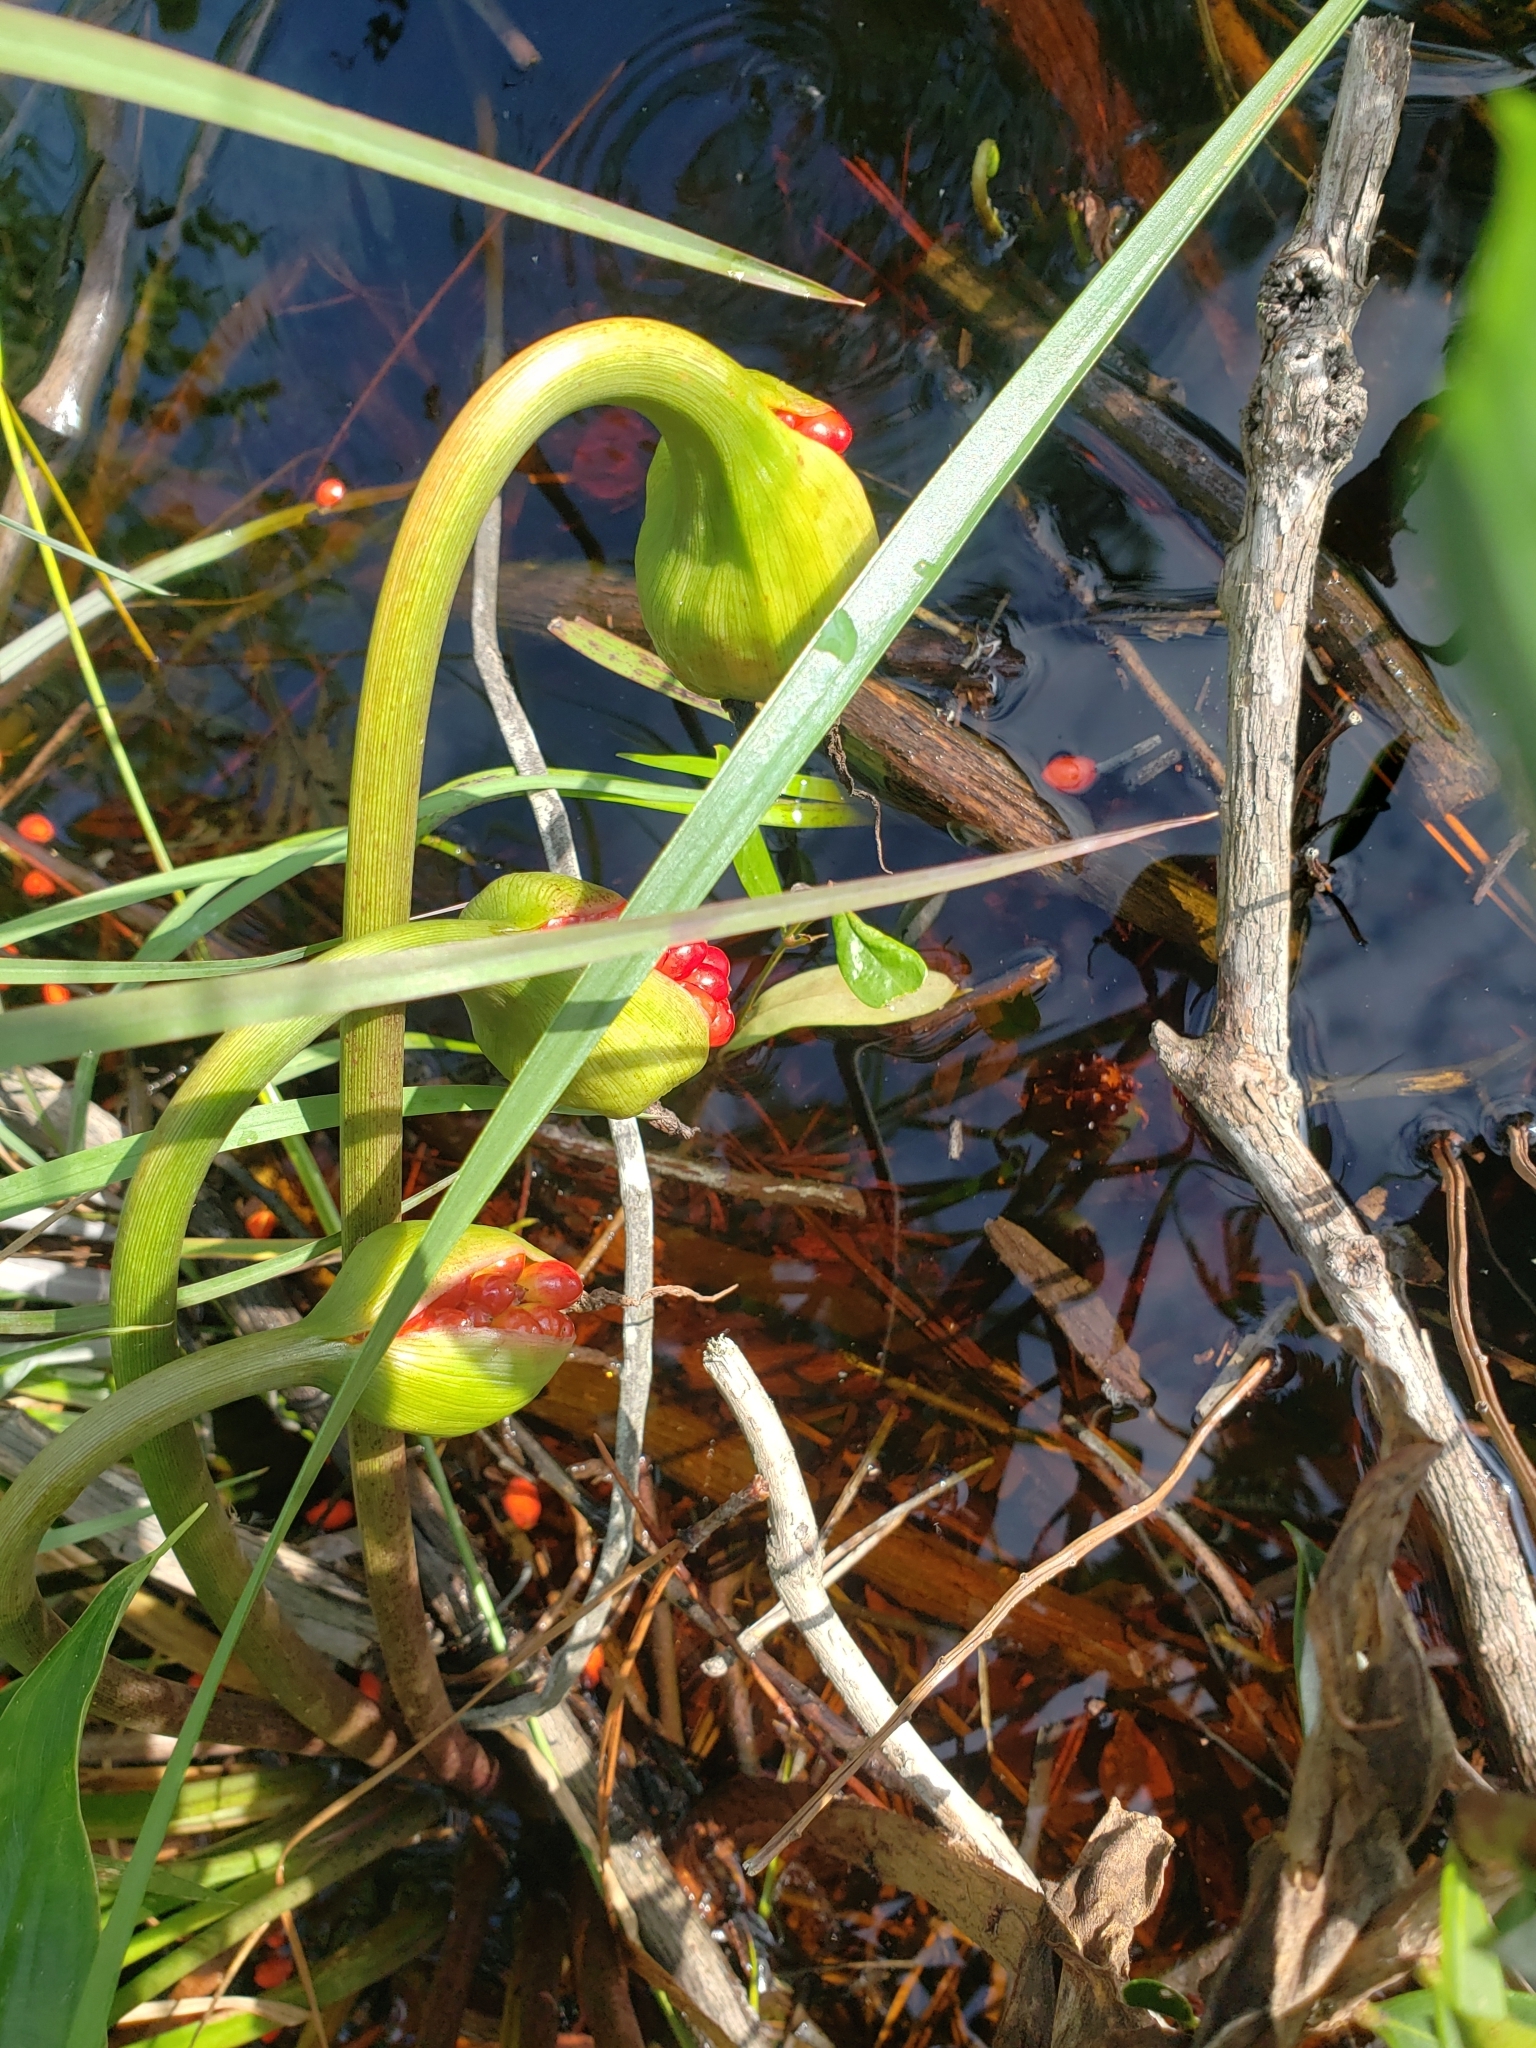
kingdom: Plantae
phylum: Tracheophyta
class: Liliopsida
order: Alismatales
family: Araceae
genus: Peltandra
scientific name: Peltandra sagittifolia
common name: White arrow arum
